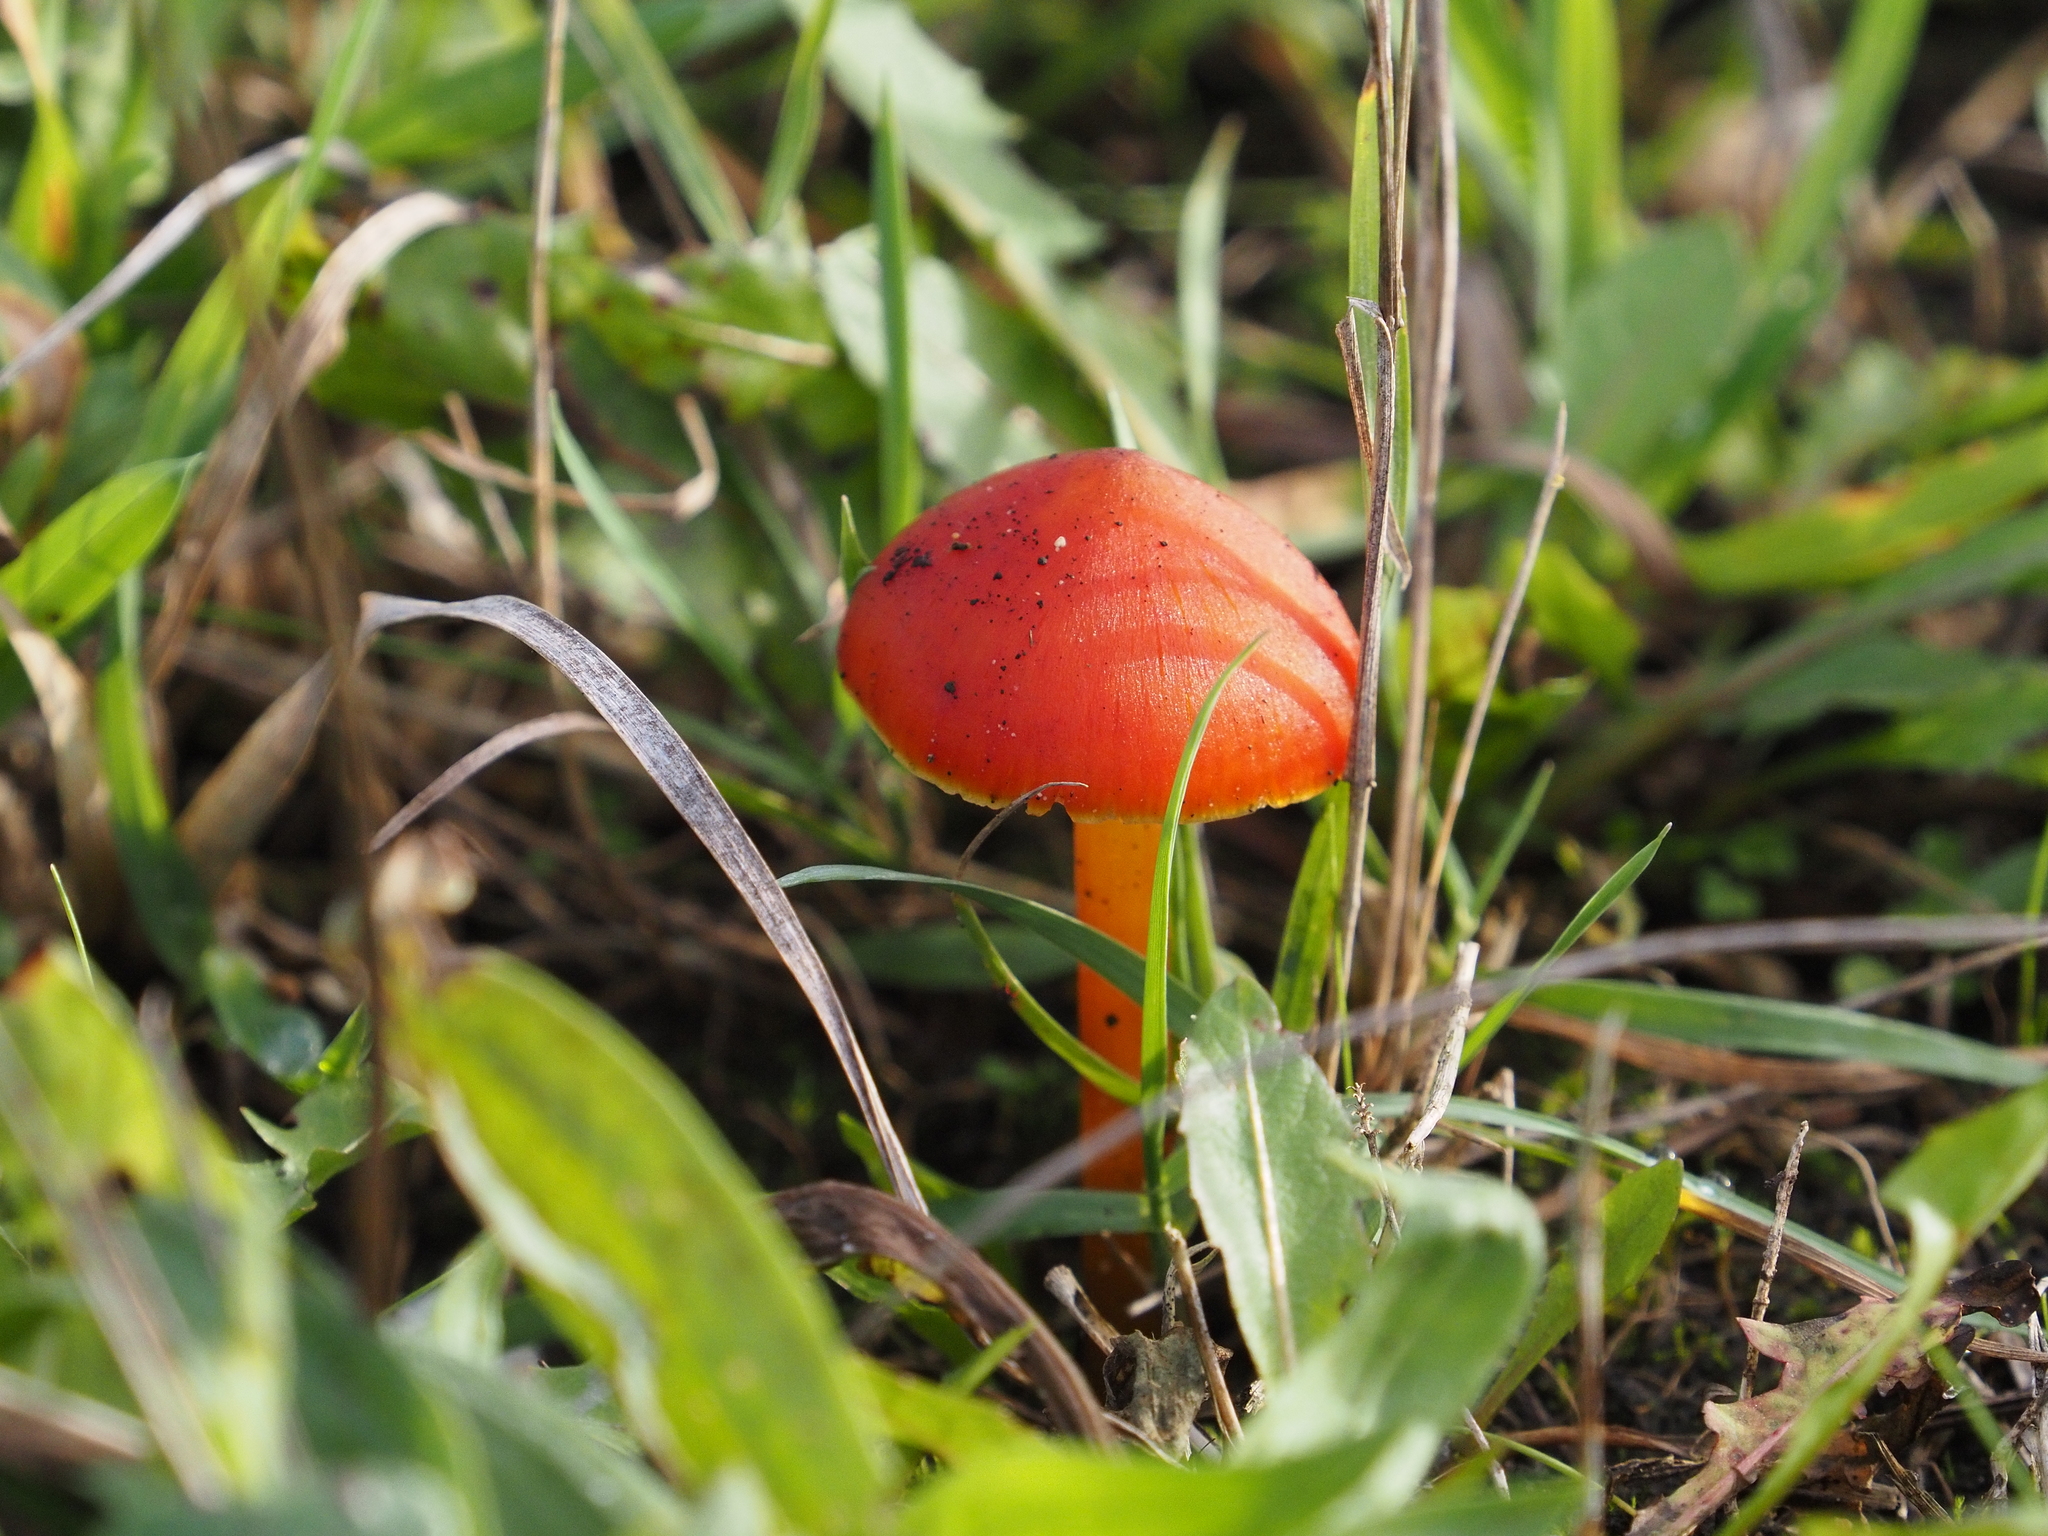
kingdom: Fungi
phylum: Basidiomycota
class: Agaricomycetes
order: Agaricales
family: Hygrophoraceae
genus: Hygrocybe
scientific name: Hygrocybe conica
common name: Blackening wax-cap
